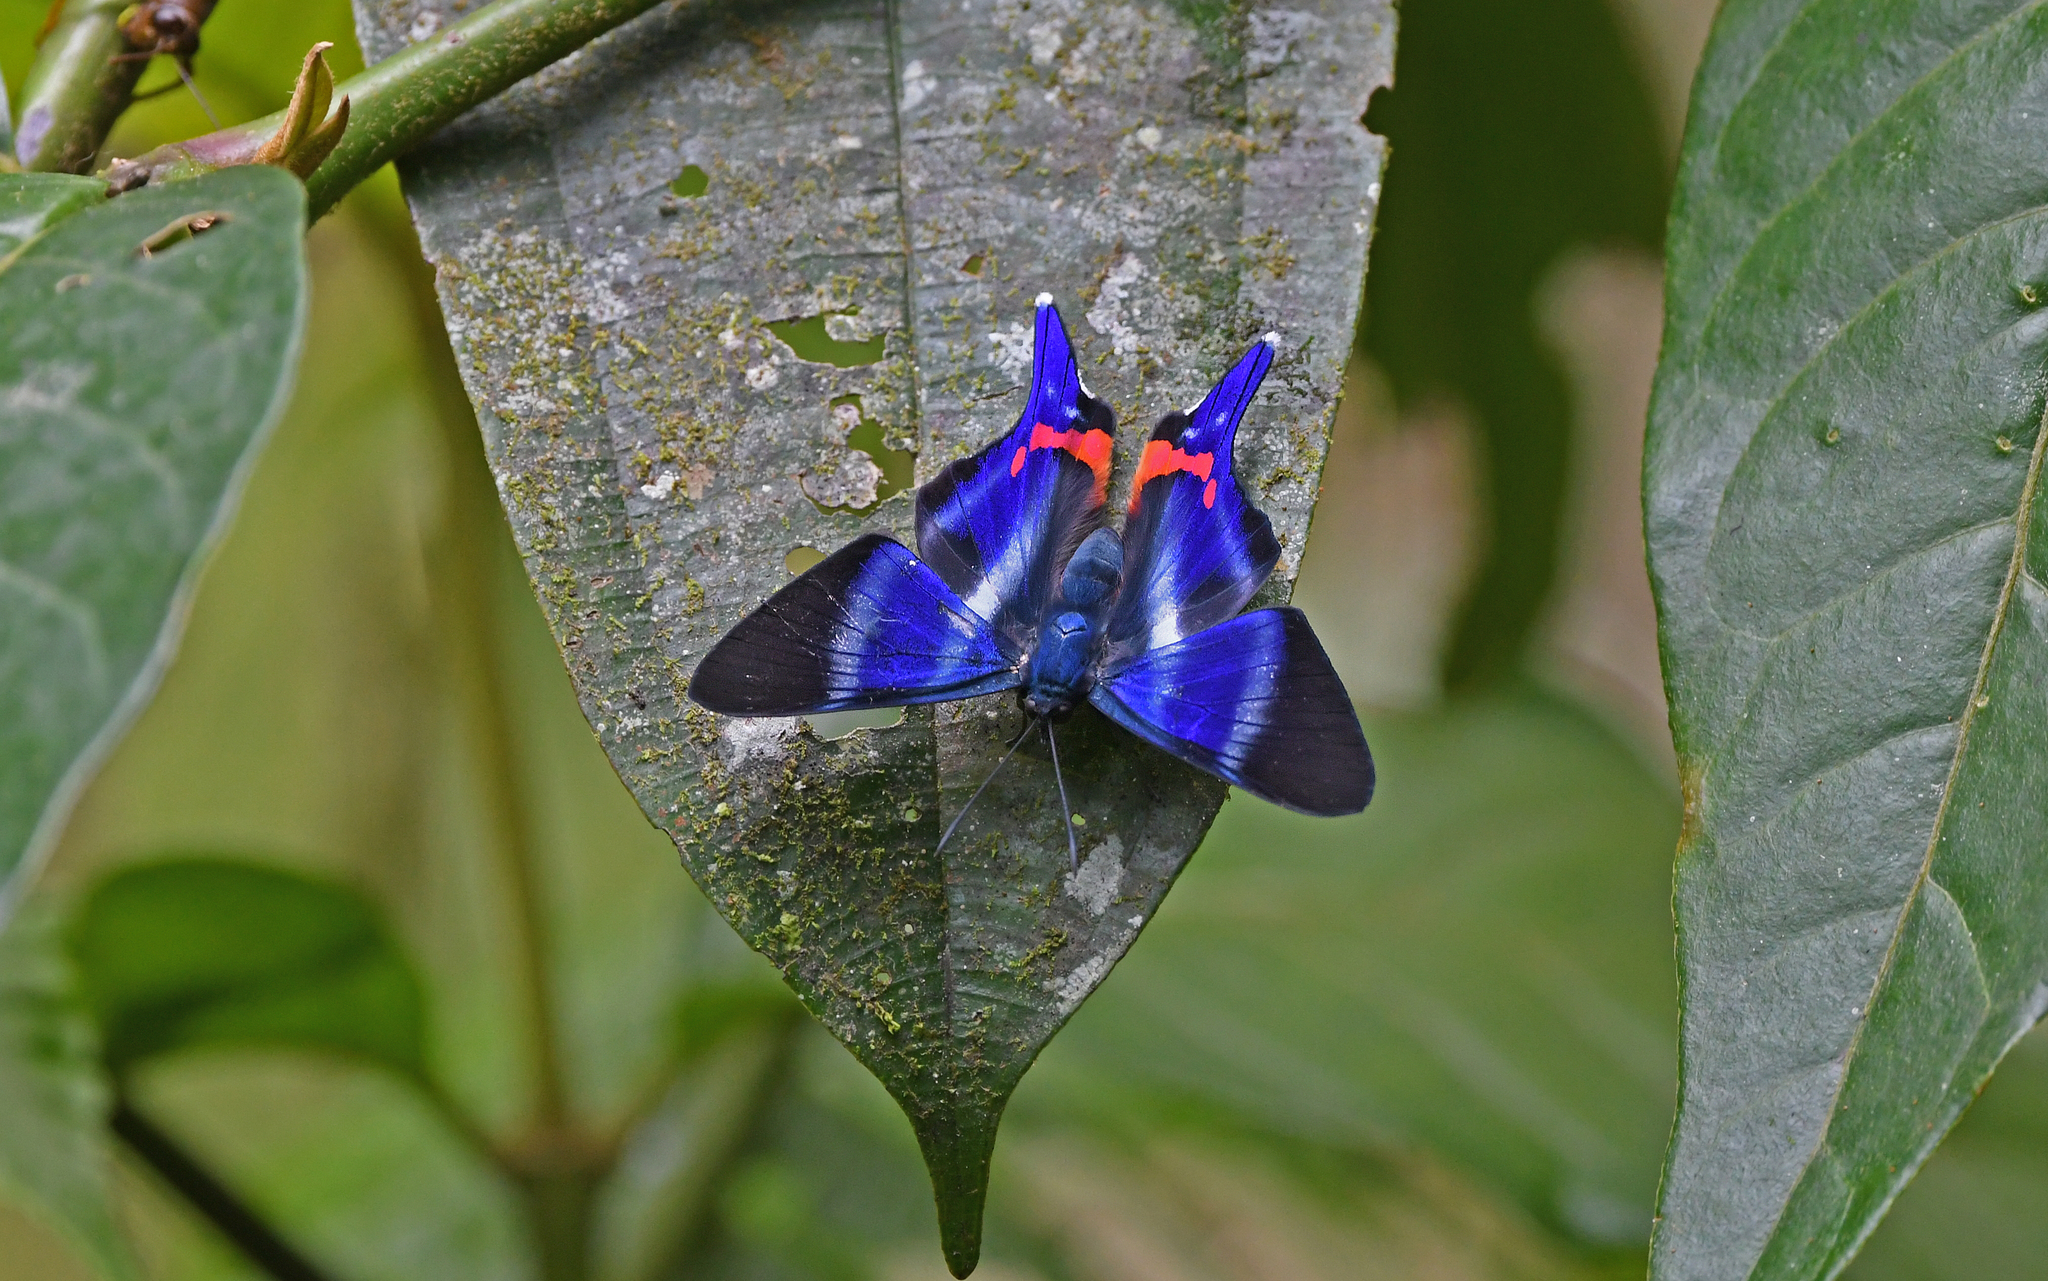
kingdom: Animalia
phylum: Arthropoda
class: Insecta
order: Lepidoptera
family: Riodinidae
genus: Rhetus
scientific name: Rhetus dysonii
